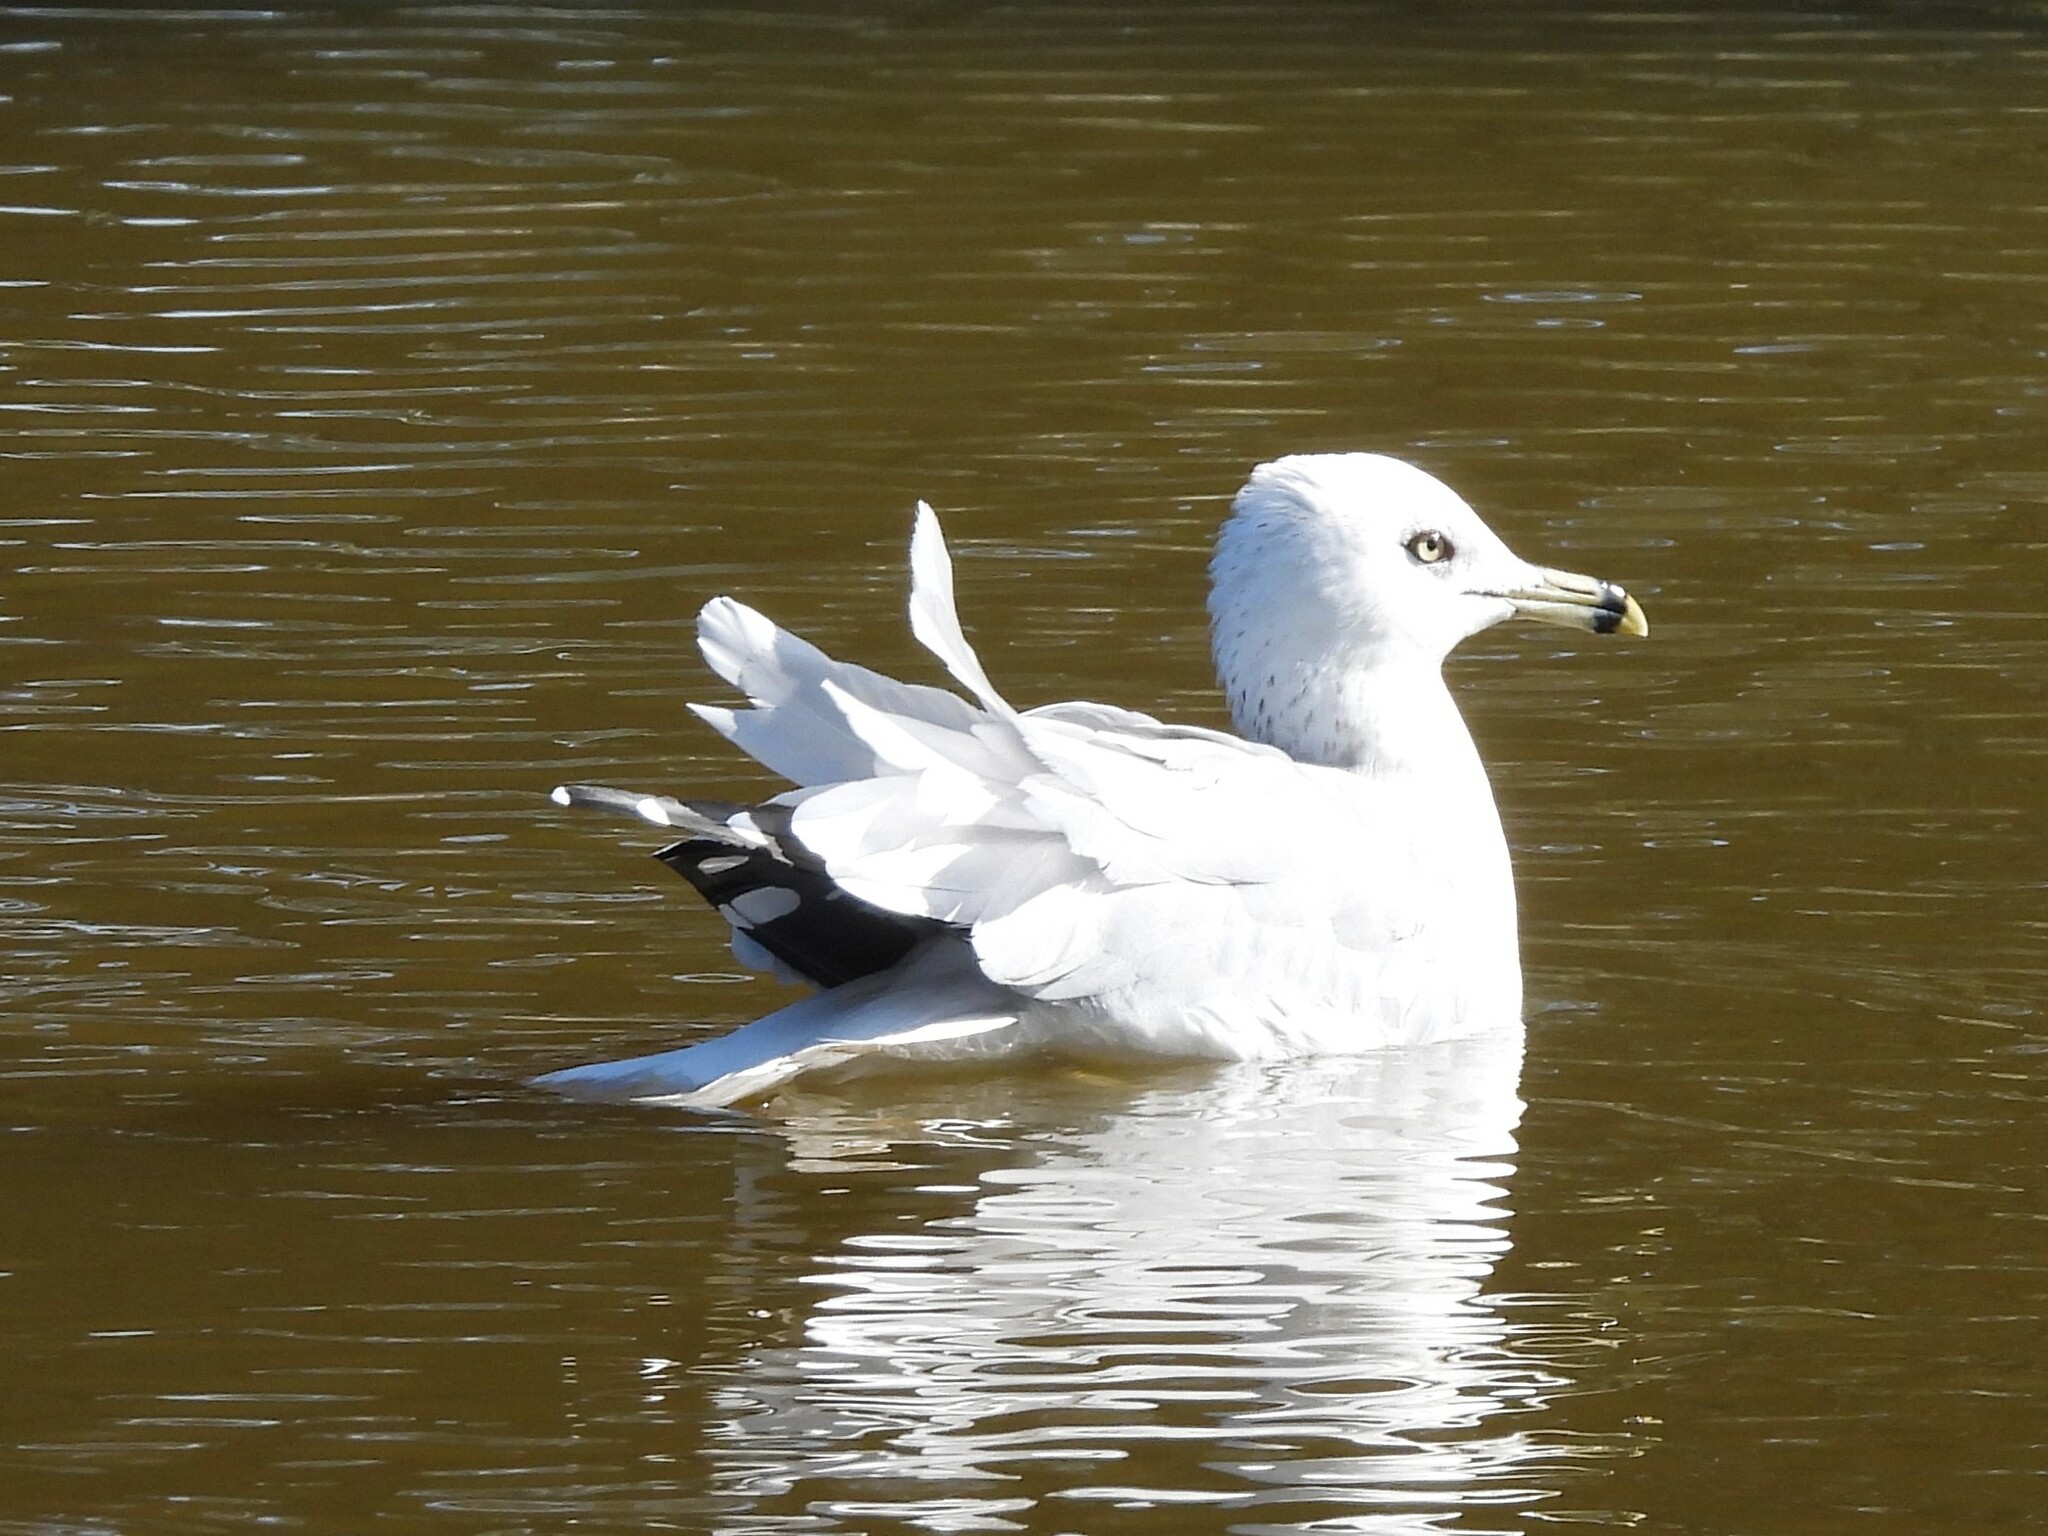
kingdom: Animalia
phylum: Chordata
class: Aves
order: Charadriiformes
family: Laridae
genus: Larus
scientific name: Larus delawarensis
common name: Ring-billed gull
